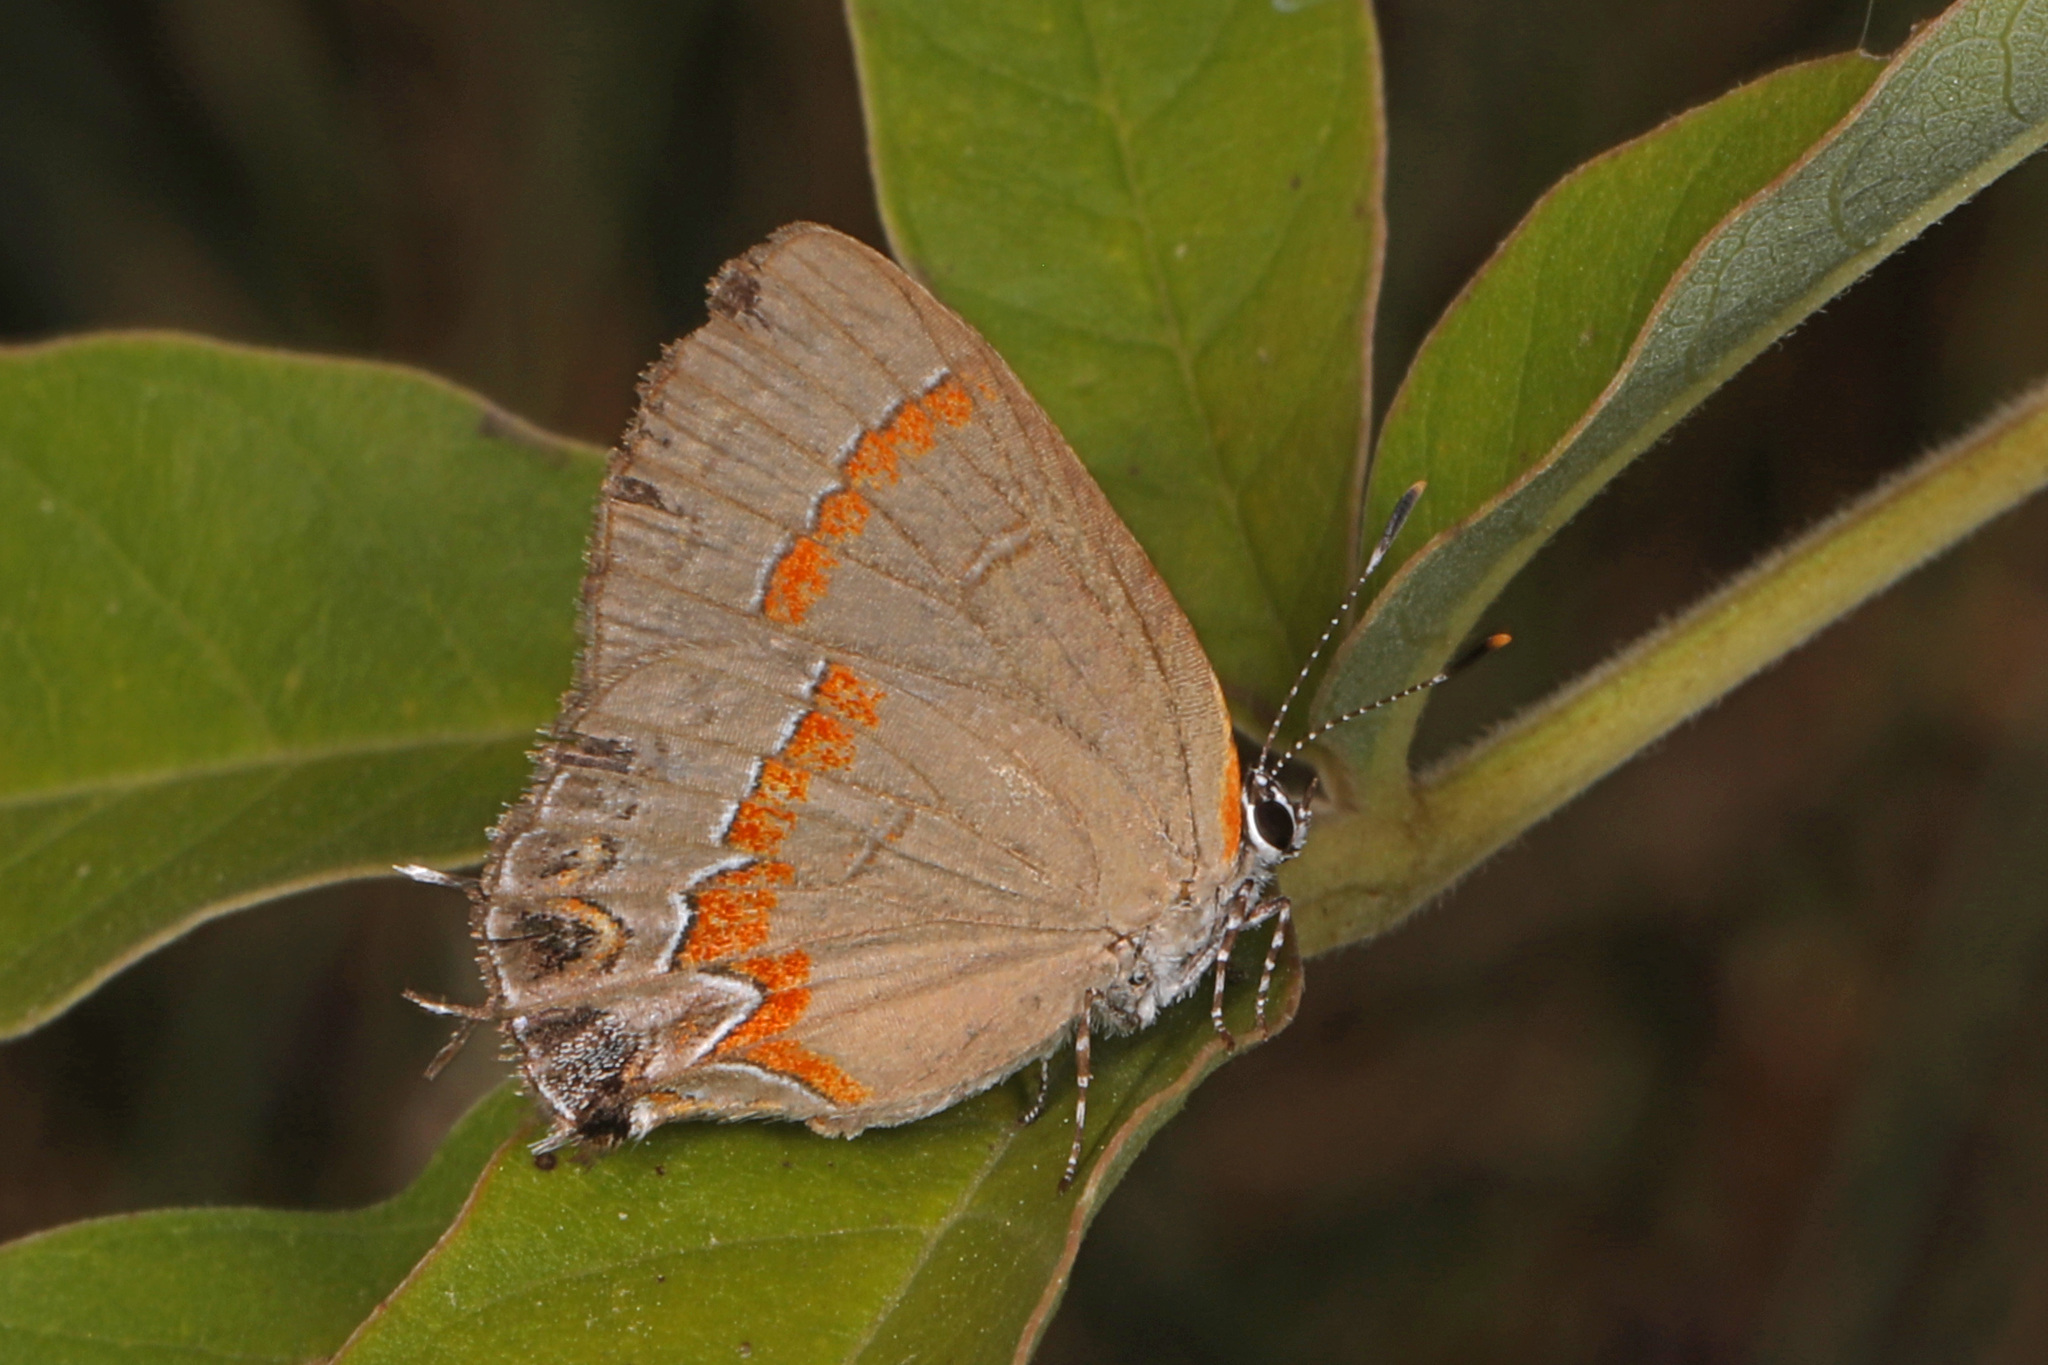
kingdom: Animalia
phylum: Arthropoda
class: Insecta
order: Lepidoptera
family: Lycaenidae
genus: Calycopis
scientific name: Calycopis cecrops
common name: Red-banded hairstreak
